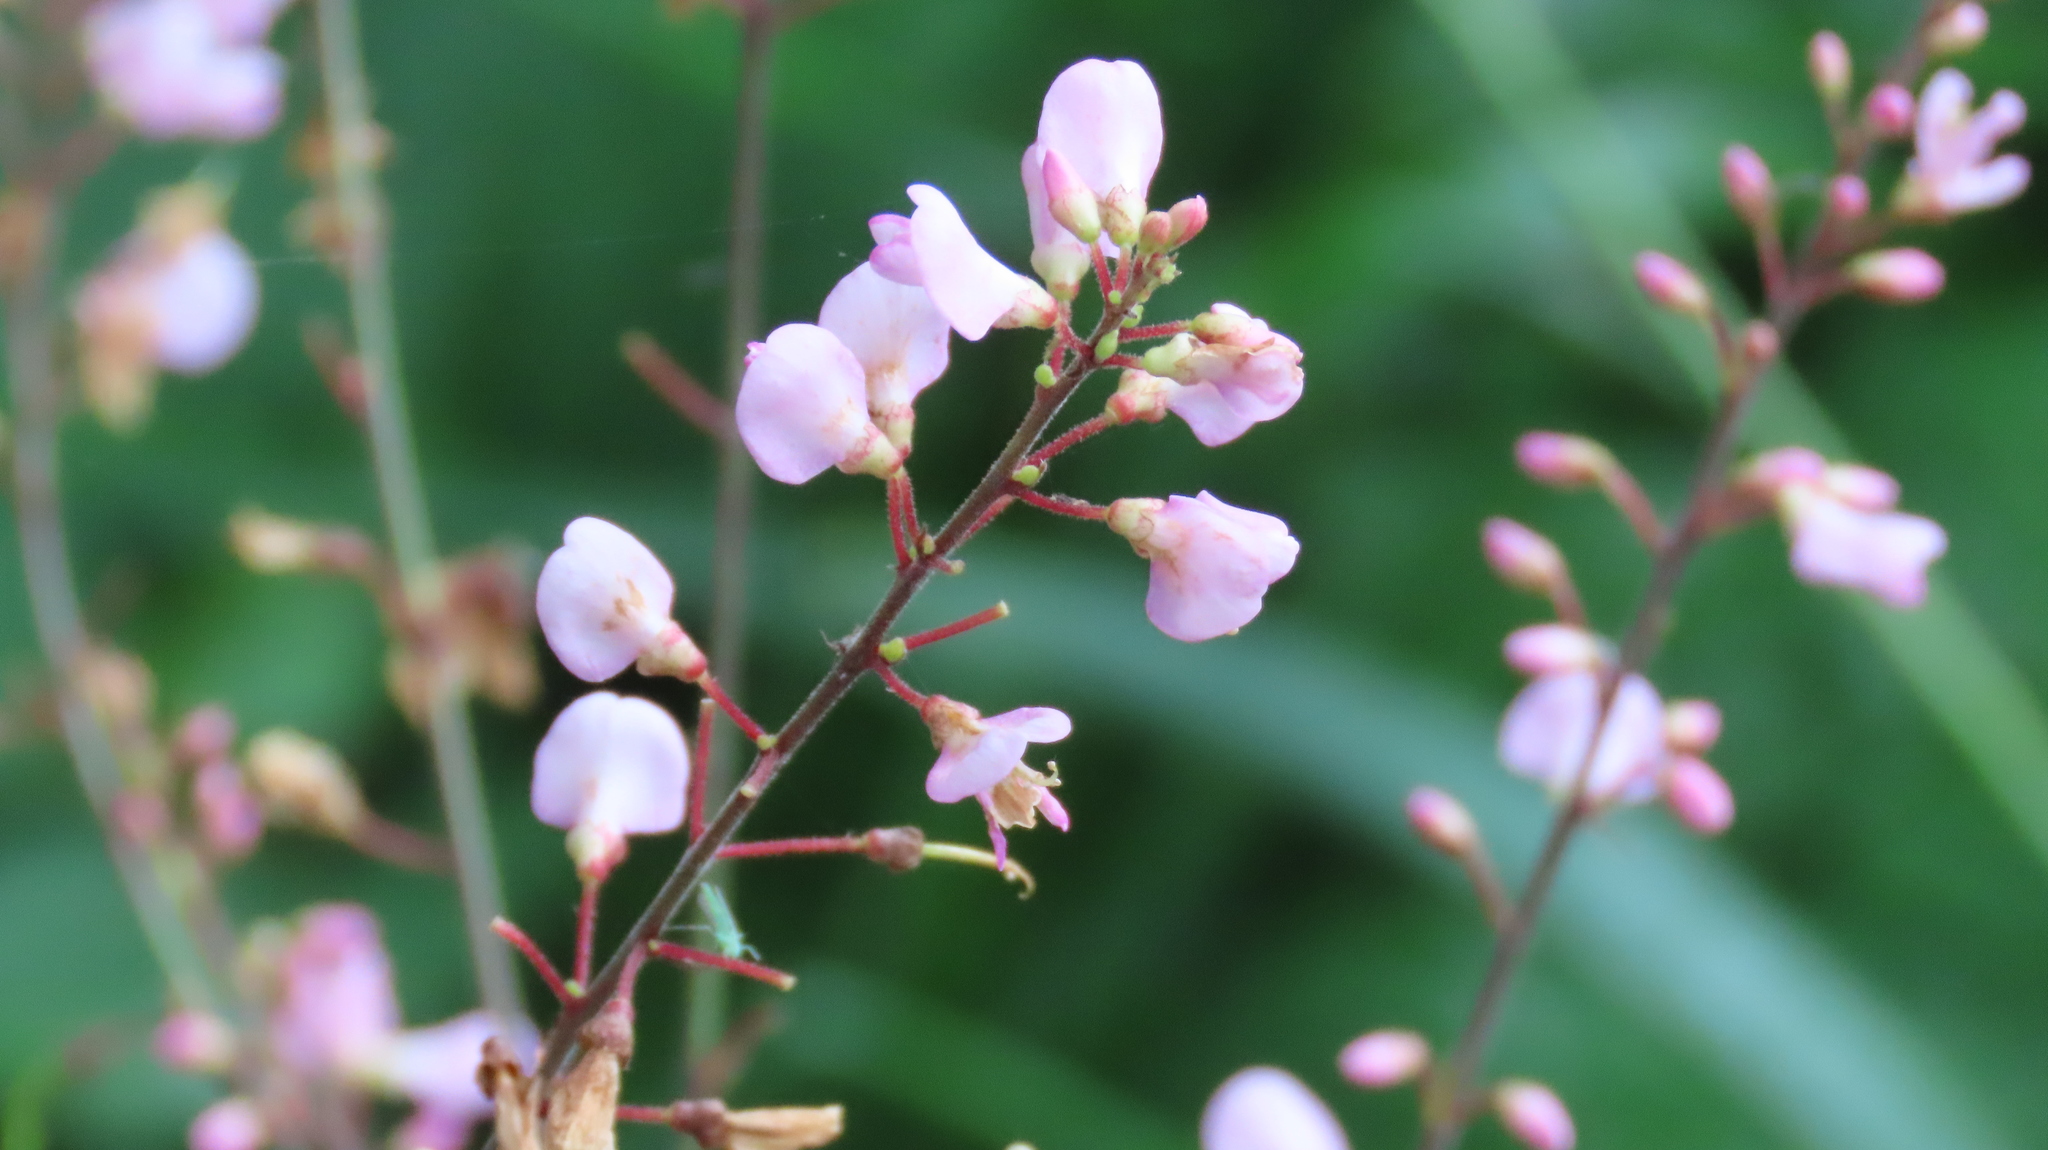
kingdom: Plantae
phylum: Tracheophyta
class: Magnoliopsida
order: Fabales
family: Fabaceae
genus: Hylodesmum
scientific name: Hylodesmum glutinosum
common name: Clustered-leaved tick-trefoil
